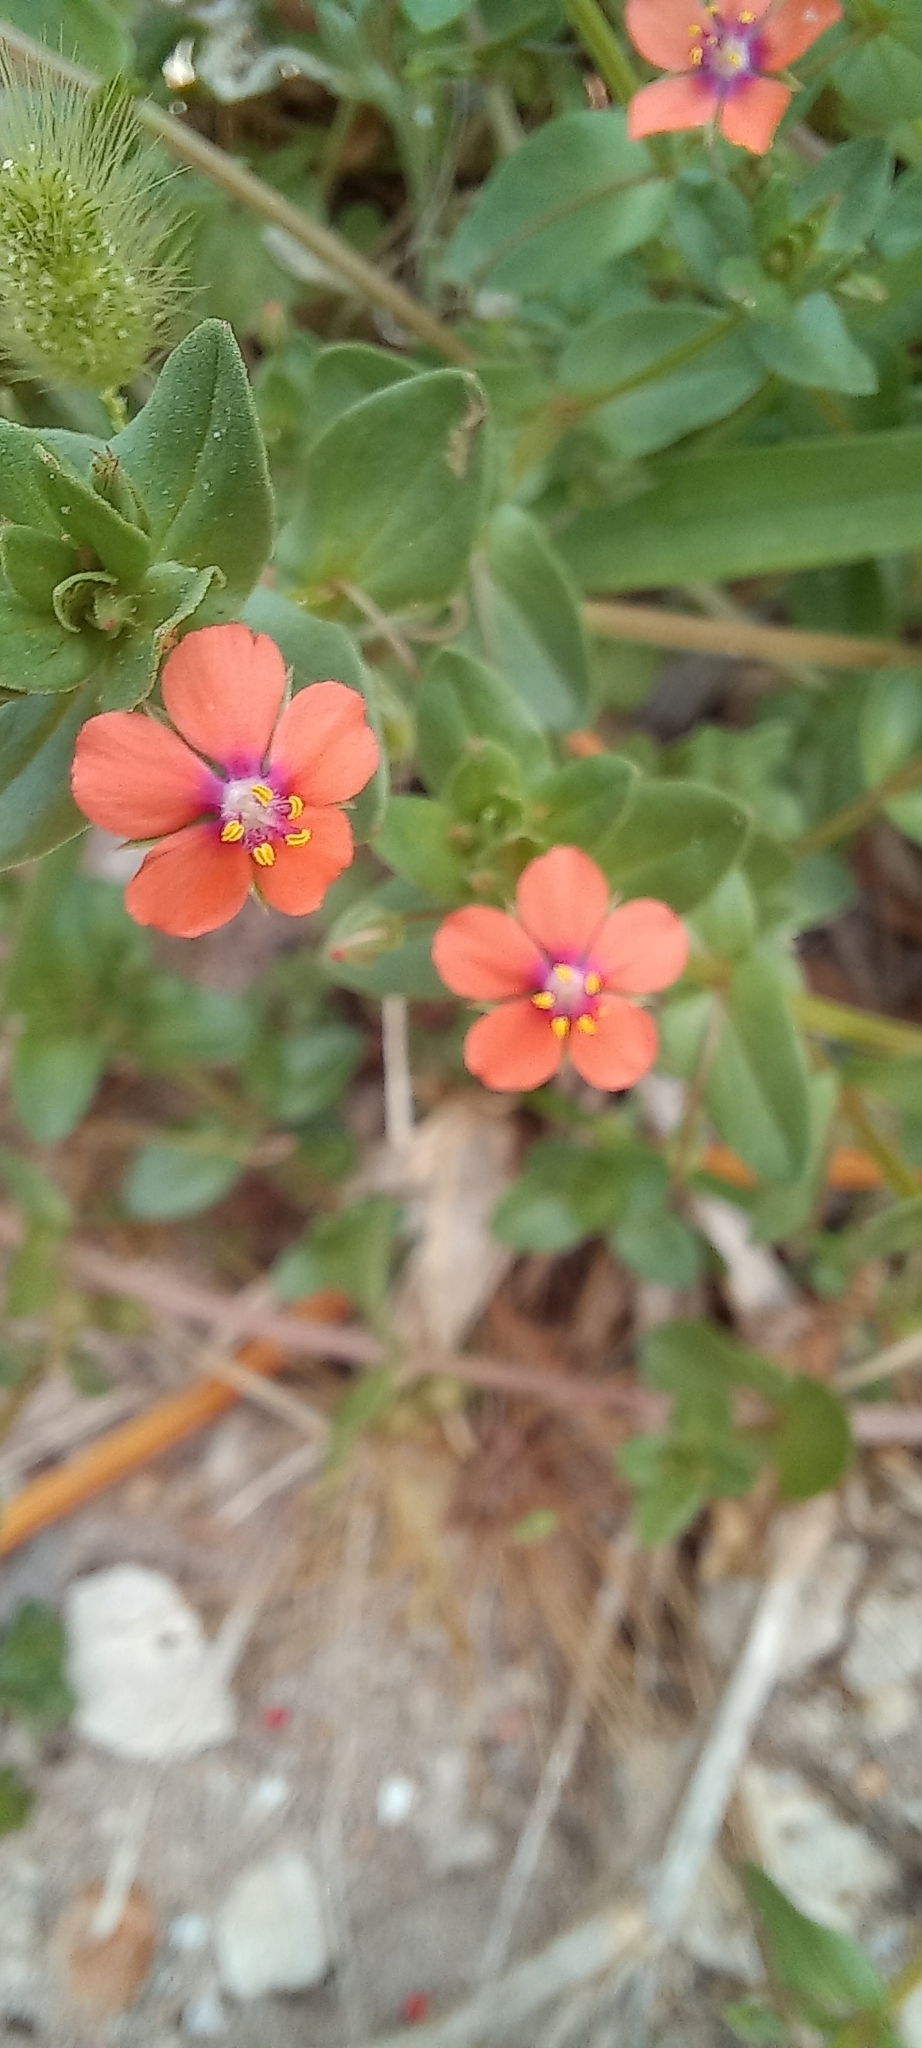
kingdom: Plantae
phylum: Tracheophyta
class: Magnoliopsida
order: Ericales
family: Primulaceae
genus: Lysimachia
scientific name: Lysimachia arvensis
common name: Scarlet pimpernel
